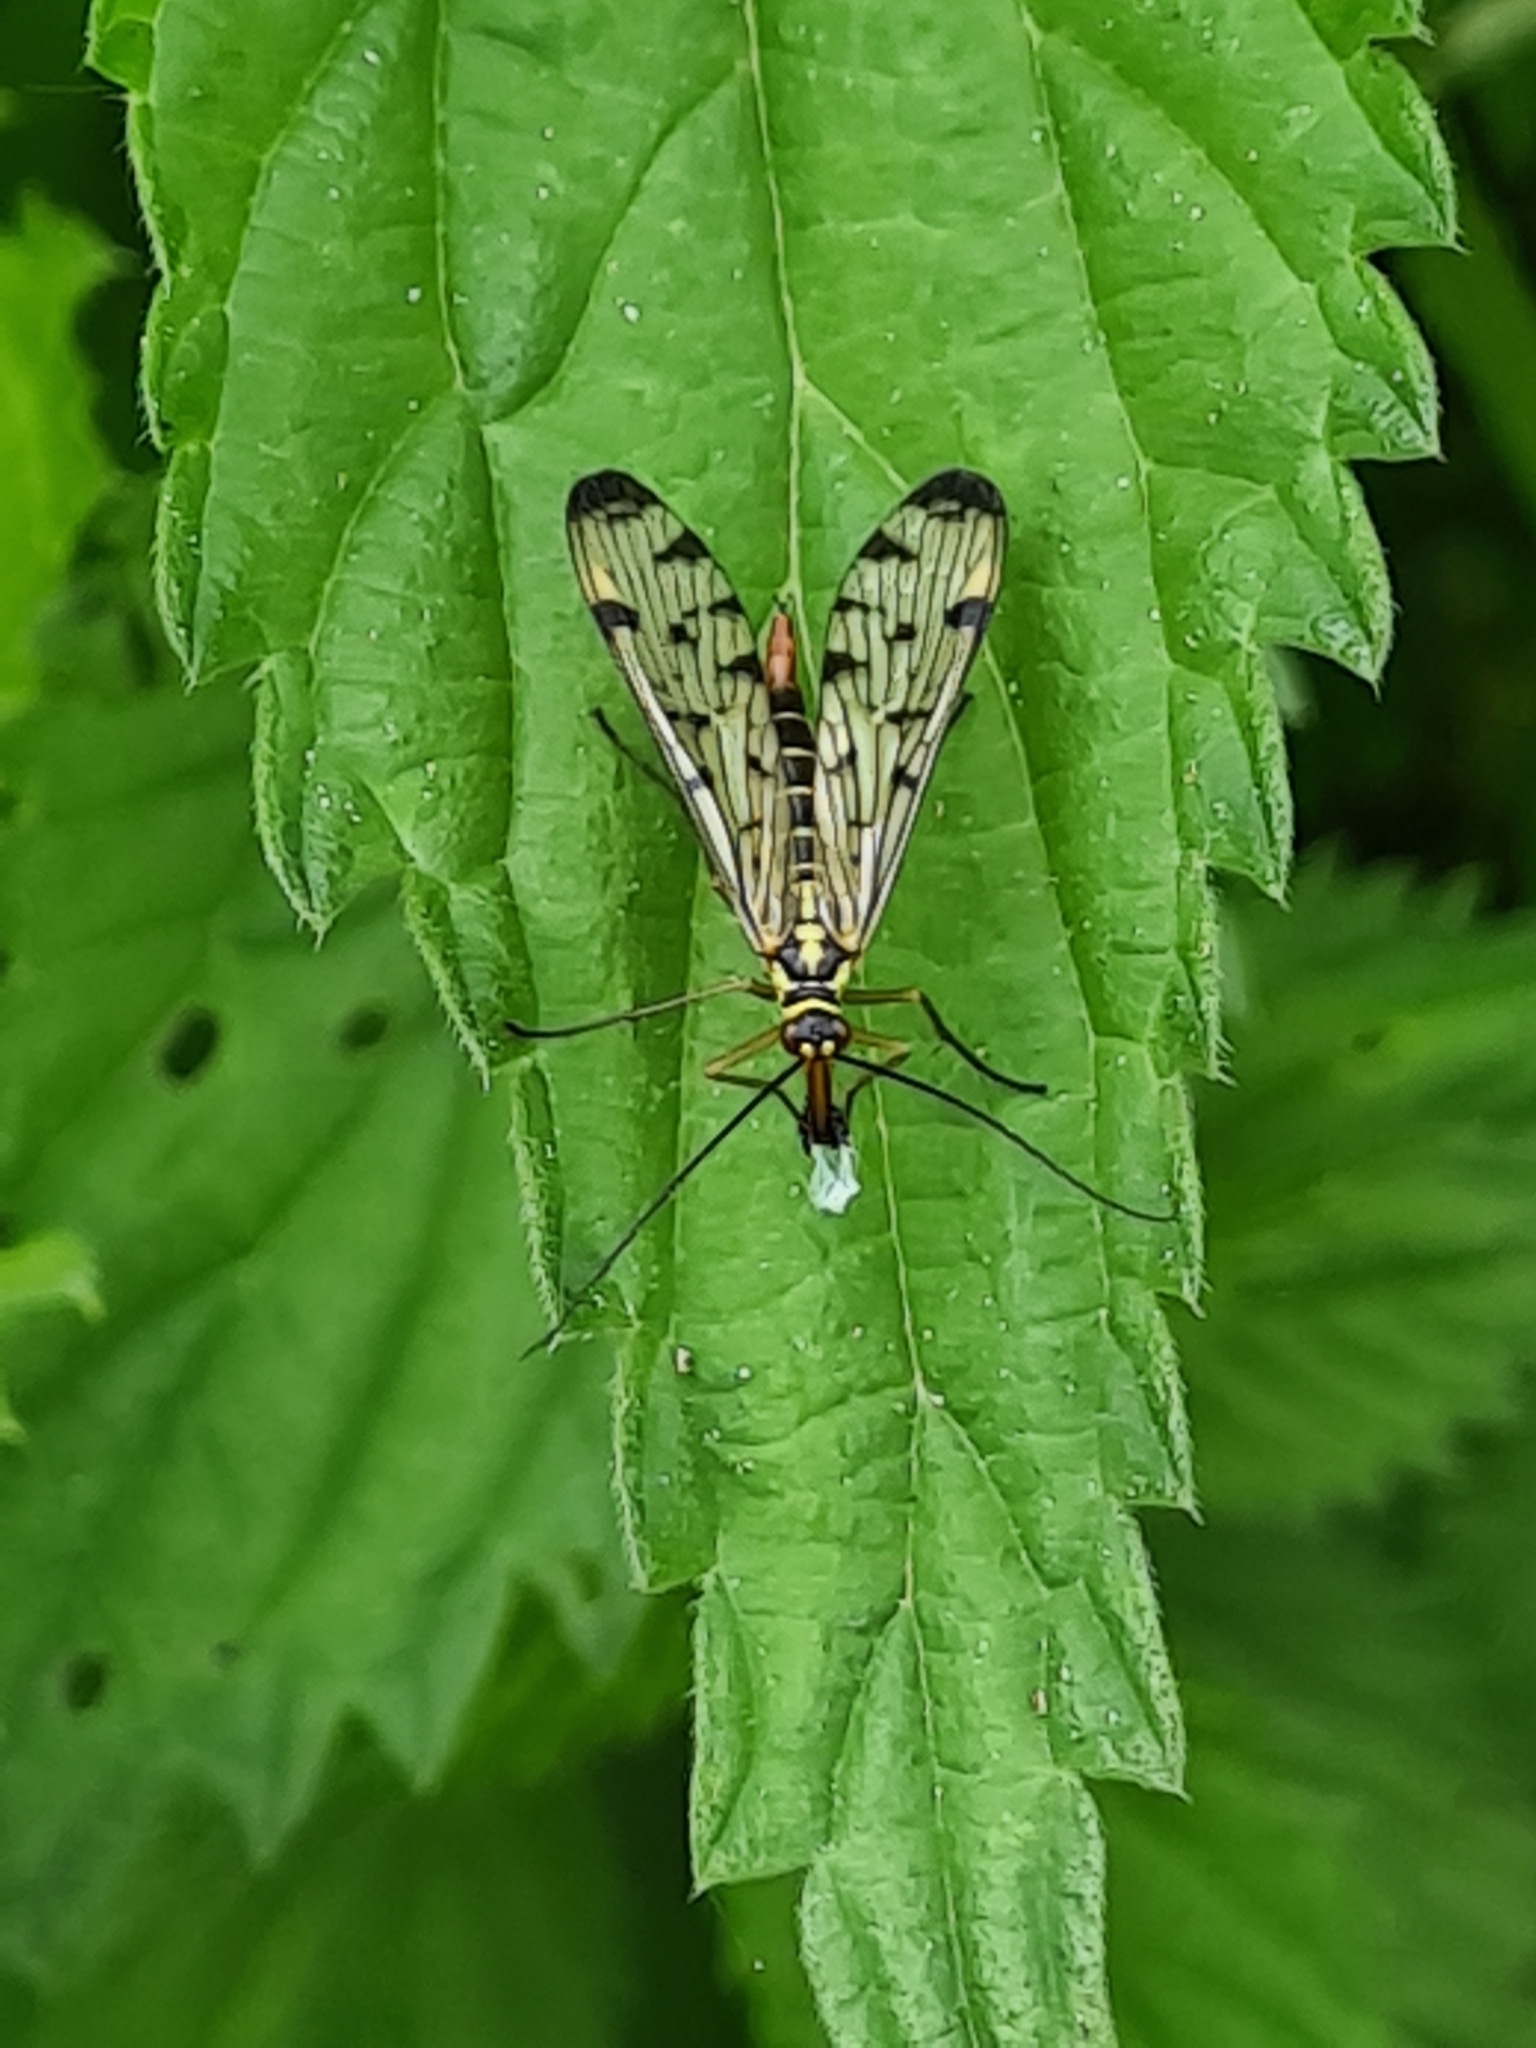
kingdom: Animalia
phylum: Arthropoda
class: Insecta
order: Mecoptera
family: Panorpidae
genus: Panorpa
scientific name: Panorpa germanica
